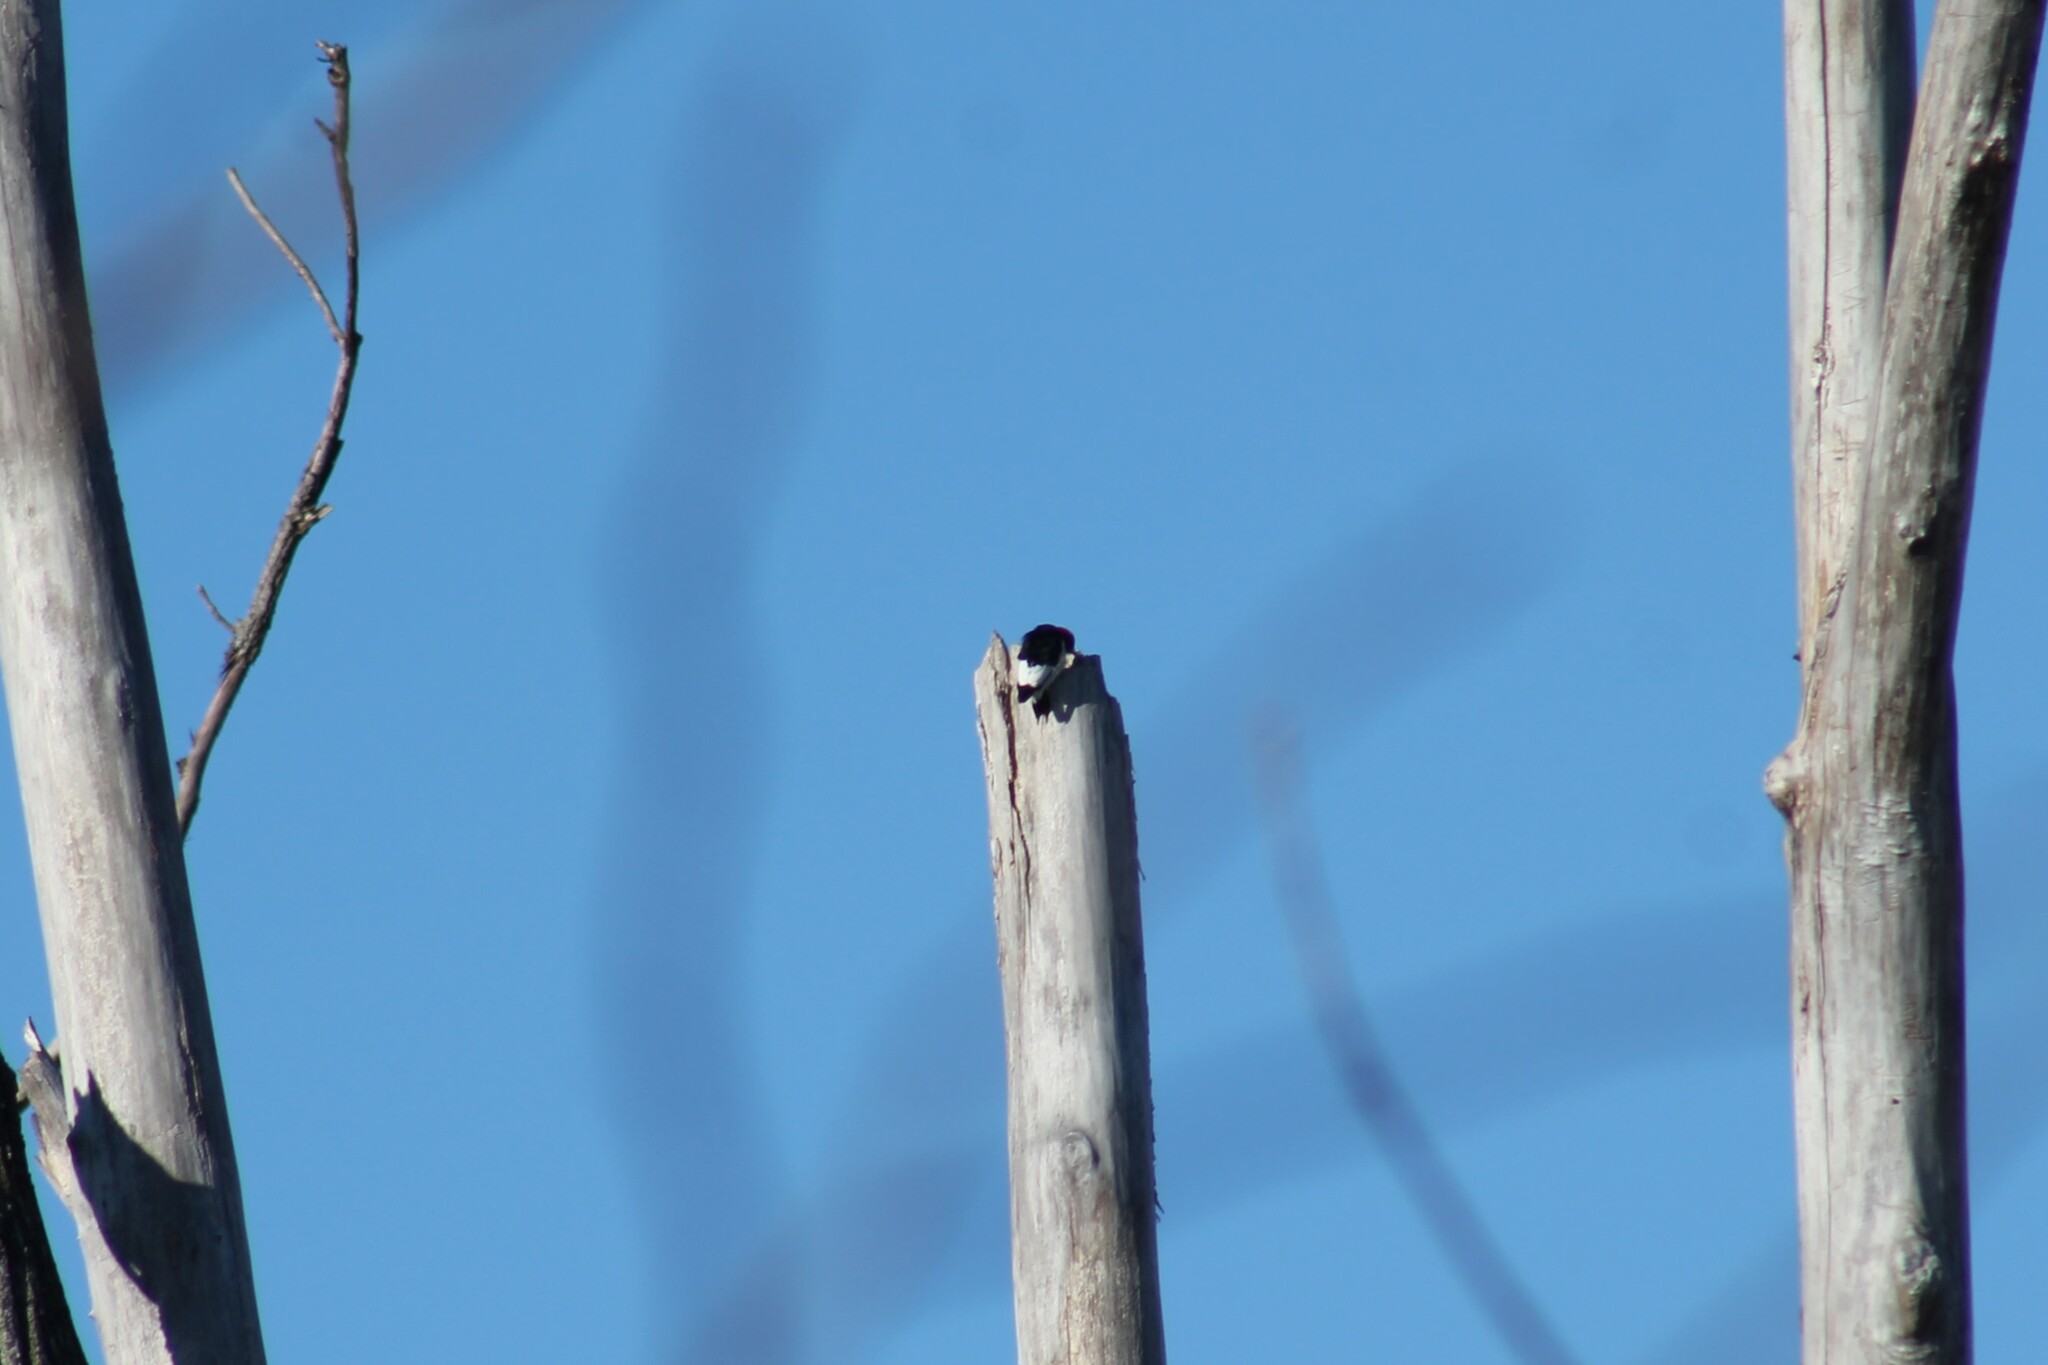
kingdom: Animalia
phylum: Chordata
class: Aves
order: Piciformes
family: Picidae
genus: Melanerpes
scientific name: Melanerpes erythrocephalus
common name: Red-headed woodpecker
